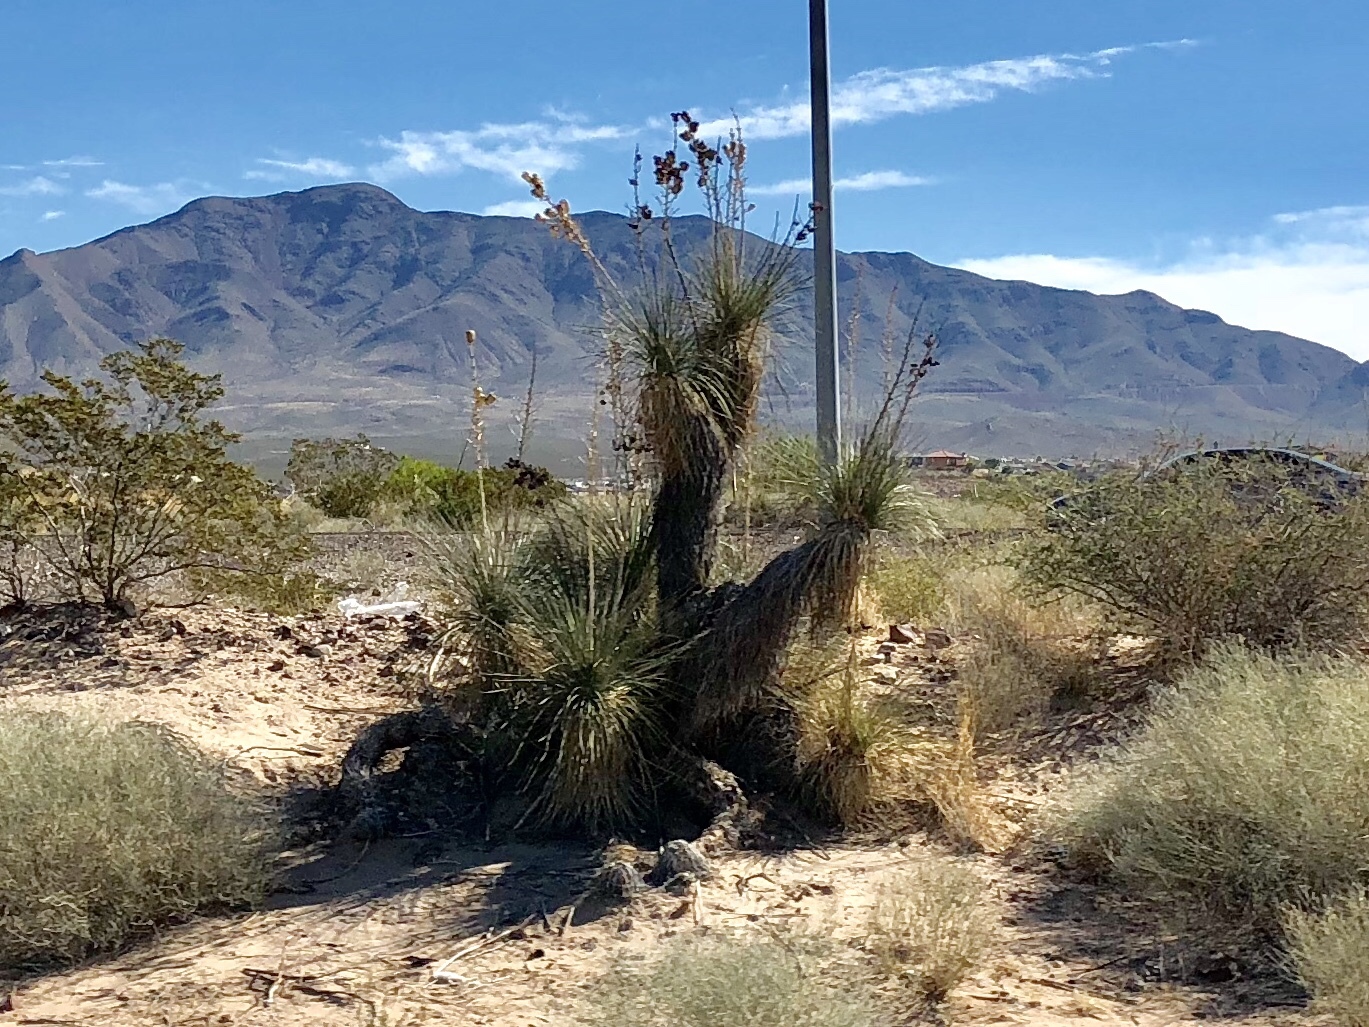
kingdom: Plantae
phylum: Tracheophyta
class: Liliopsida
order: Asparagales
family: Asparagaceae
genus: Yucca
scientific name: Yucca elata
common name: Palmella
